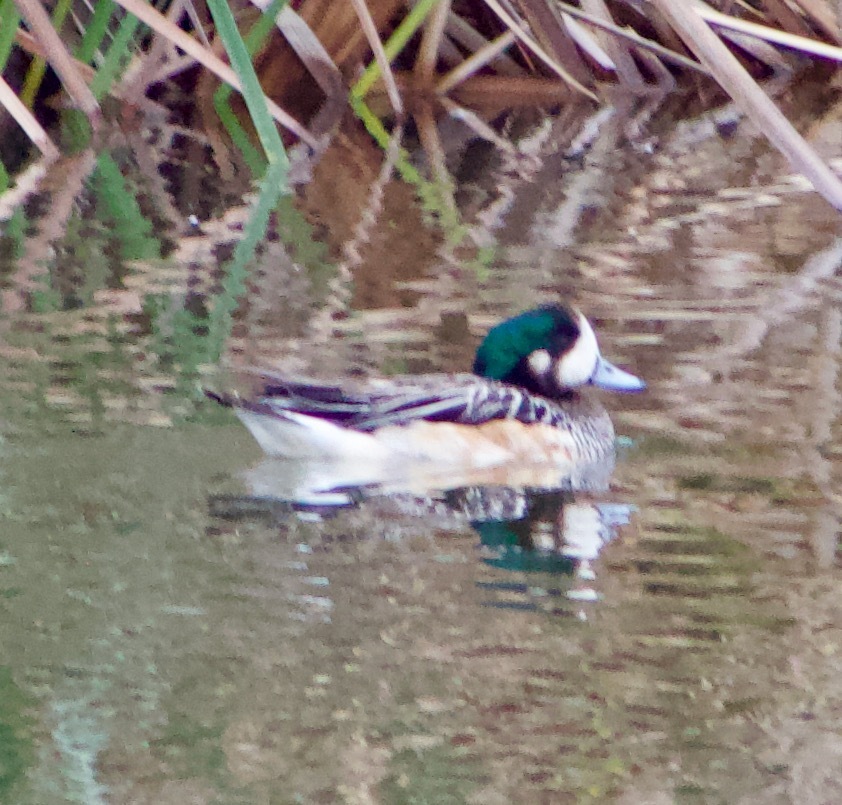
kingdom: Animalia
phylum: Chordata
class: Aves
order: Anseriformes
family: Anatidae
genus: Mareca
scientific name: Mareca sibilatrix
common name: Chiloe wigeon
